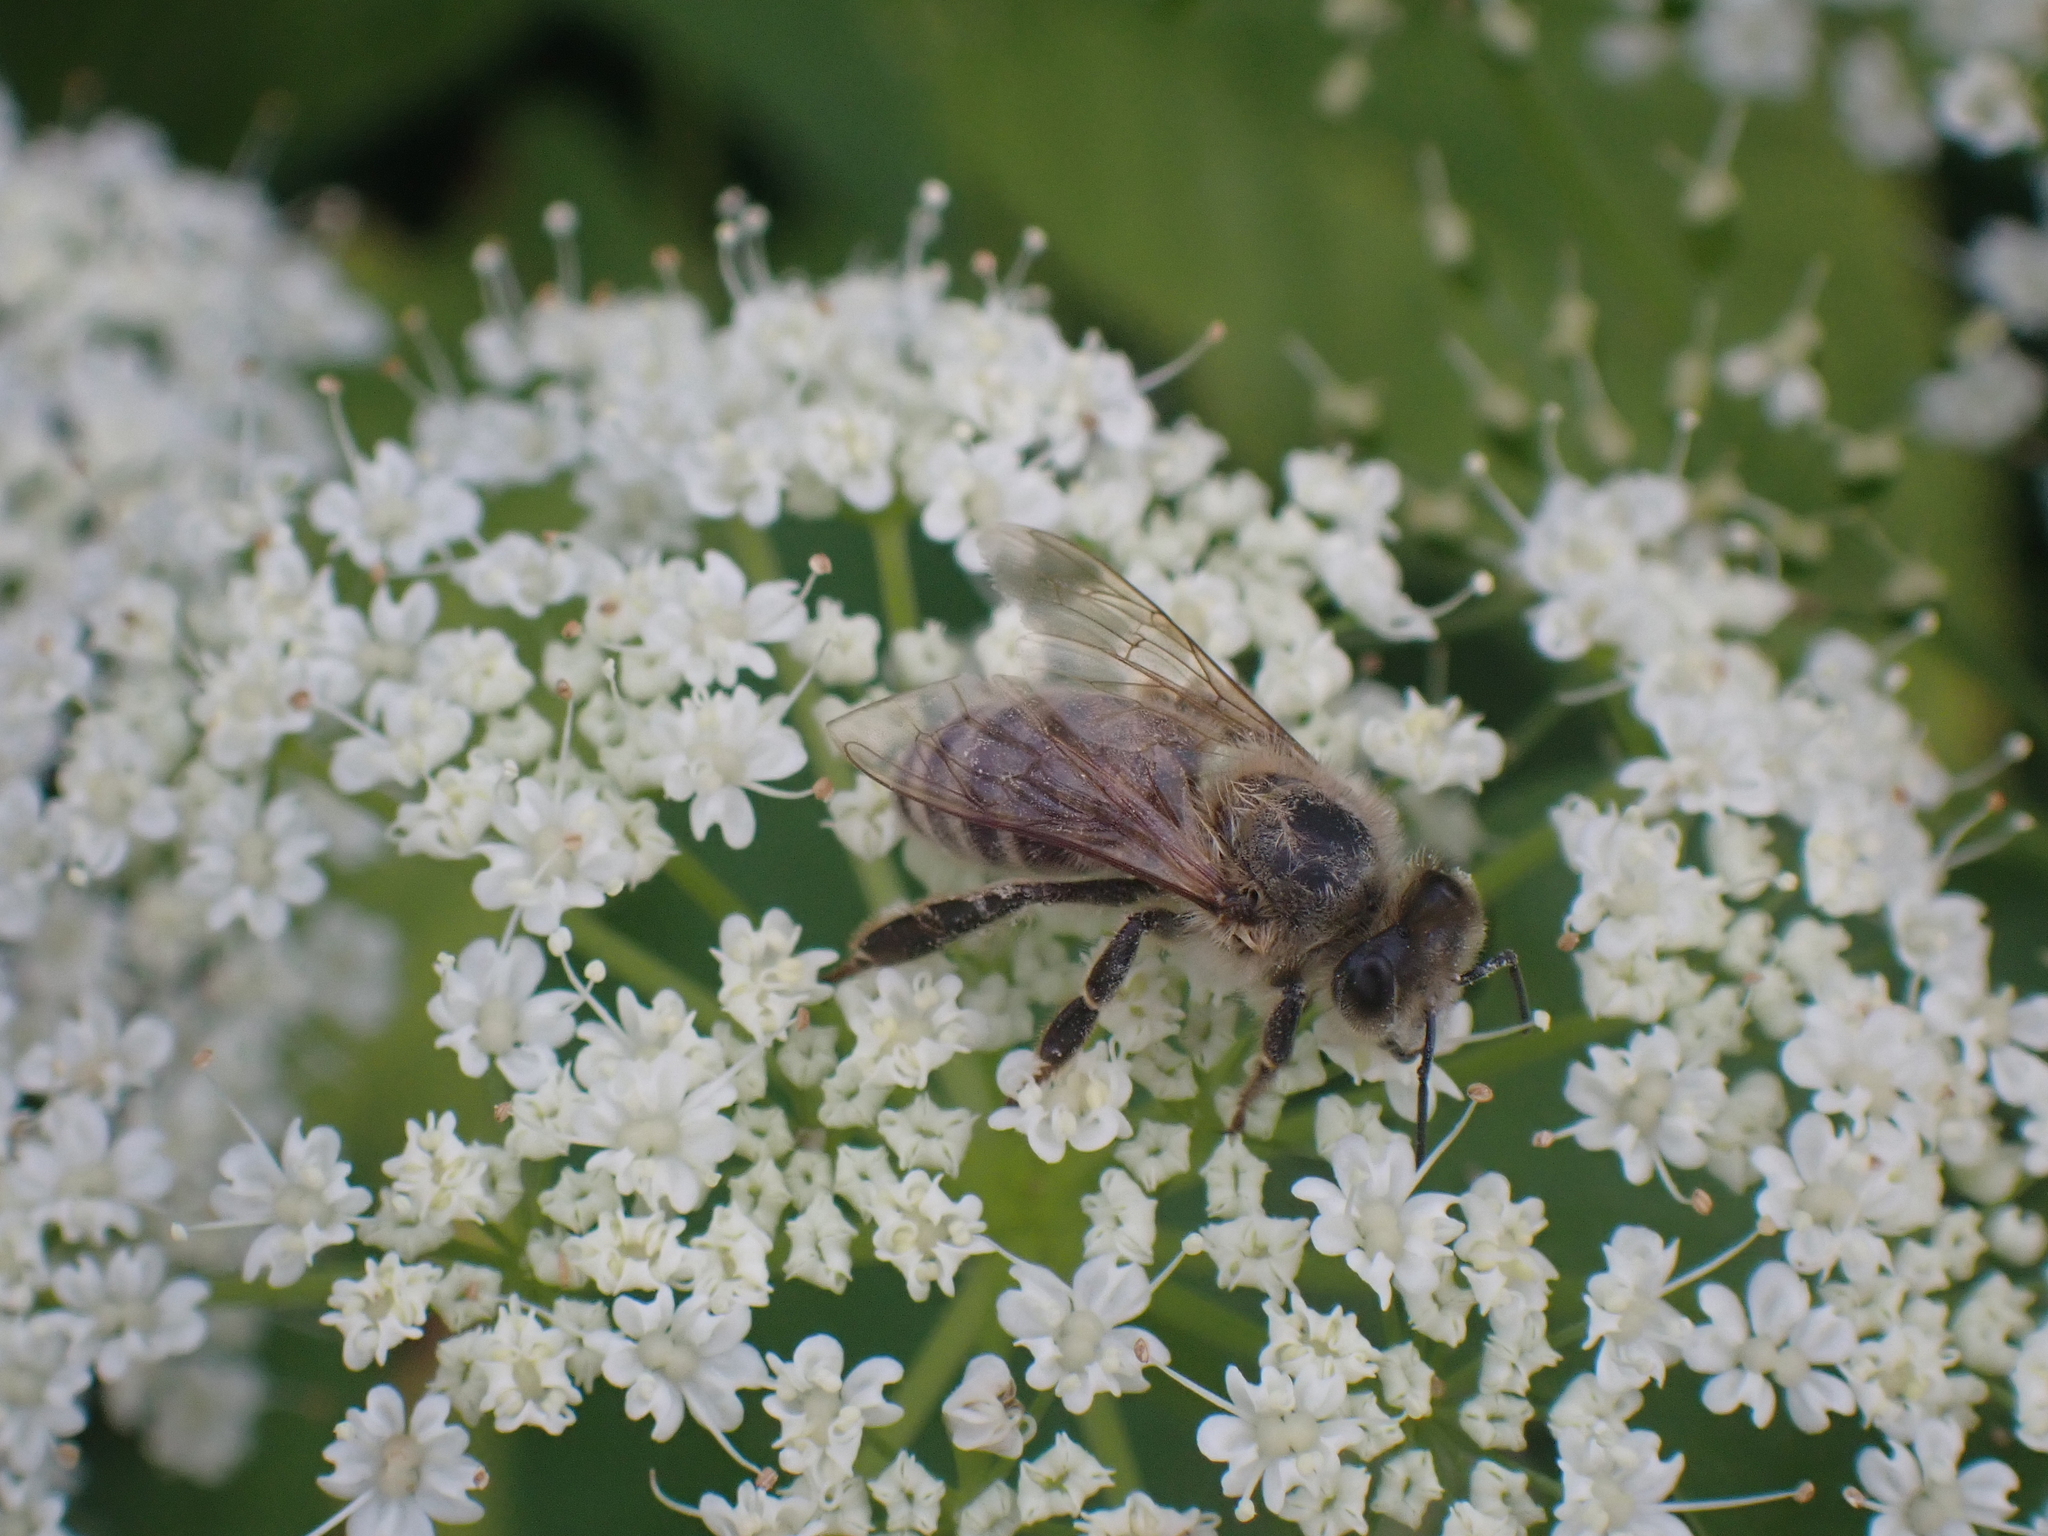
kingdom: Animalia
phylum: Arthropoda
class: Insecta
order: Hymenoptera
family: Apidae
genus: Apis
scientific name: Apis mellifera
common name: Honey bee
